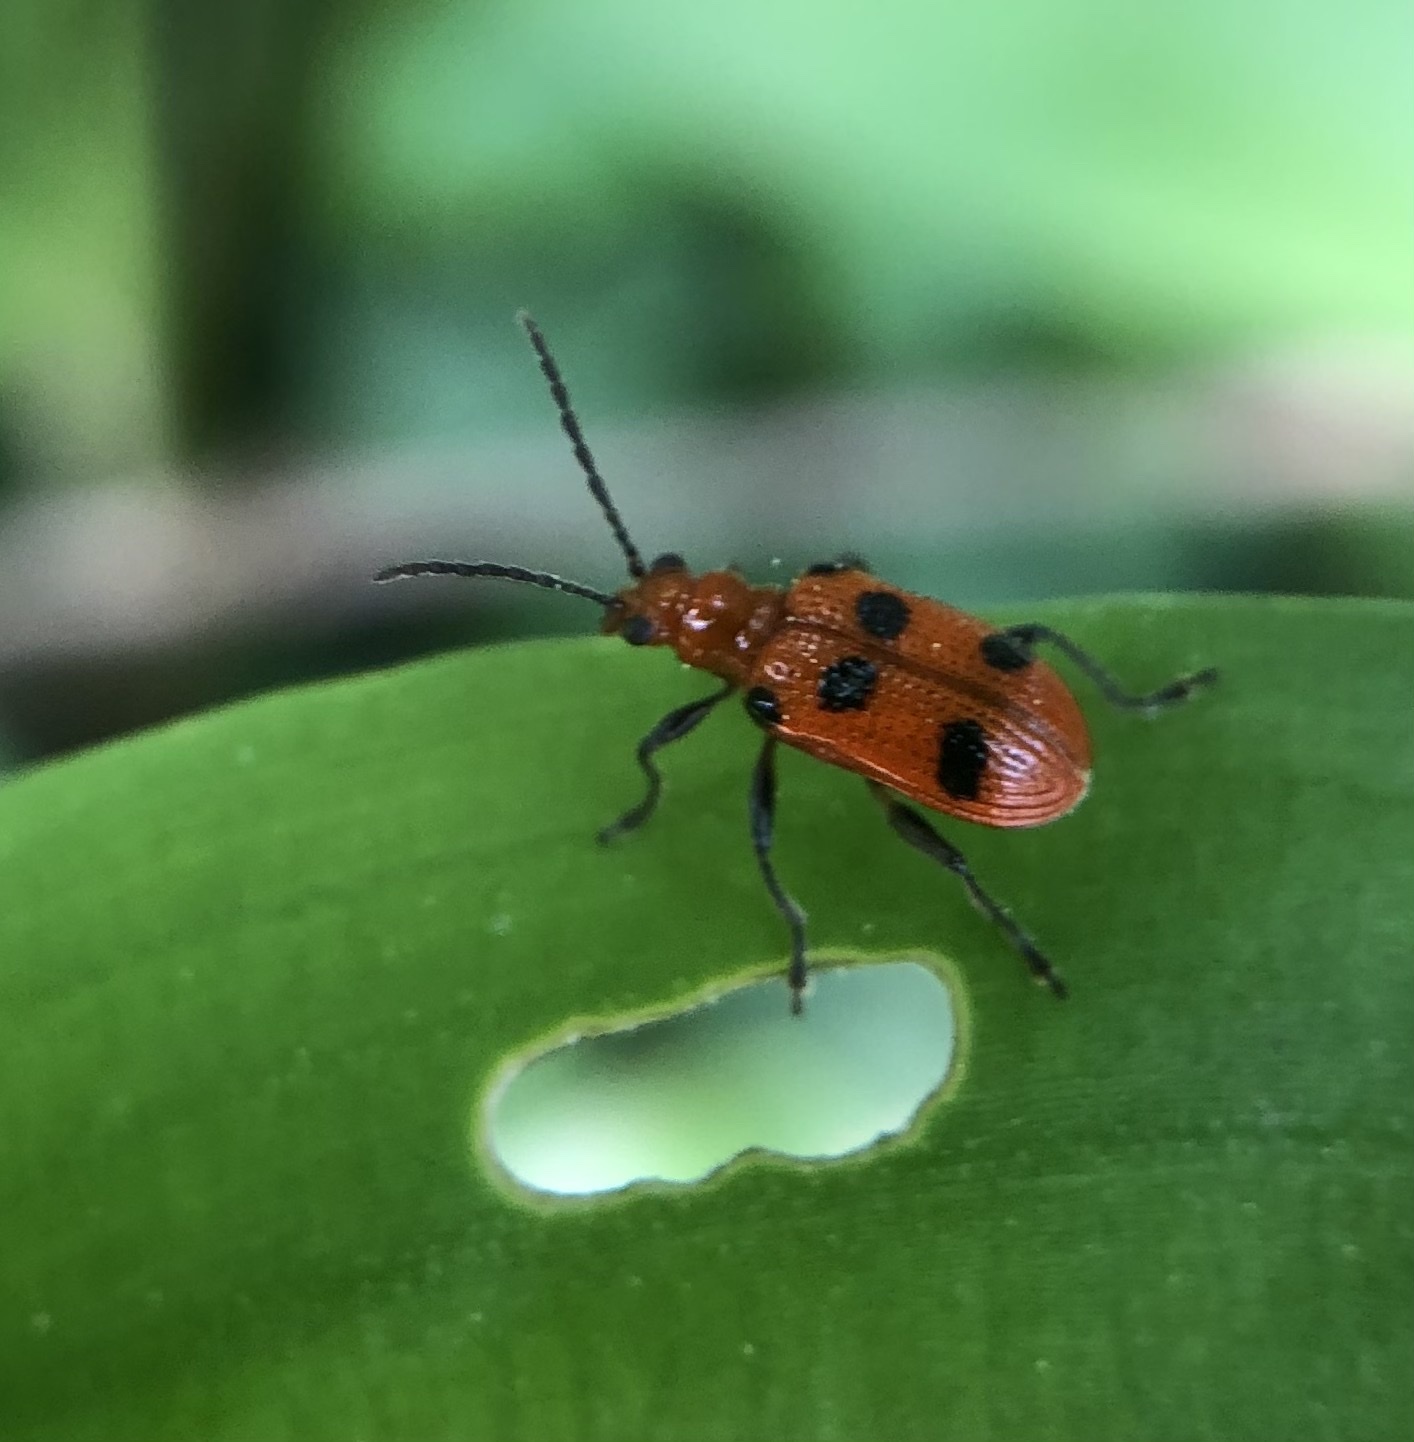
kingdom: Animalia
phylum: Arthropoda
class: Insecta
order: Coleoptera
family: Chrysomelidae
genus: Neolema
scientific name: Neolema sexpunctata
